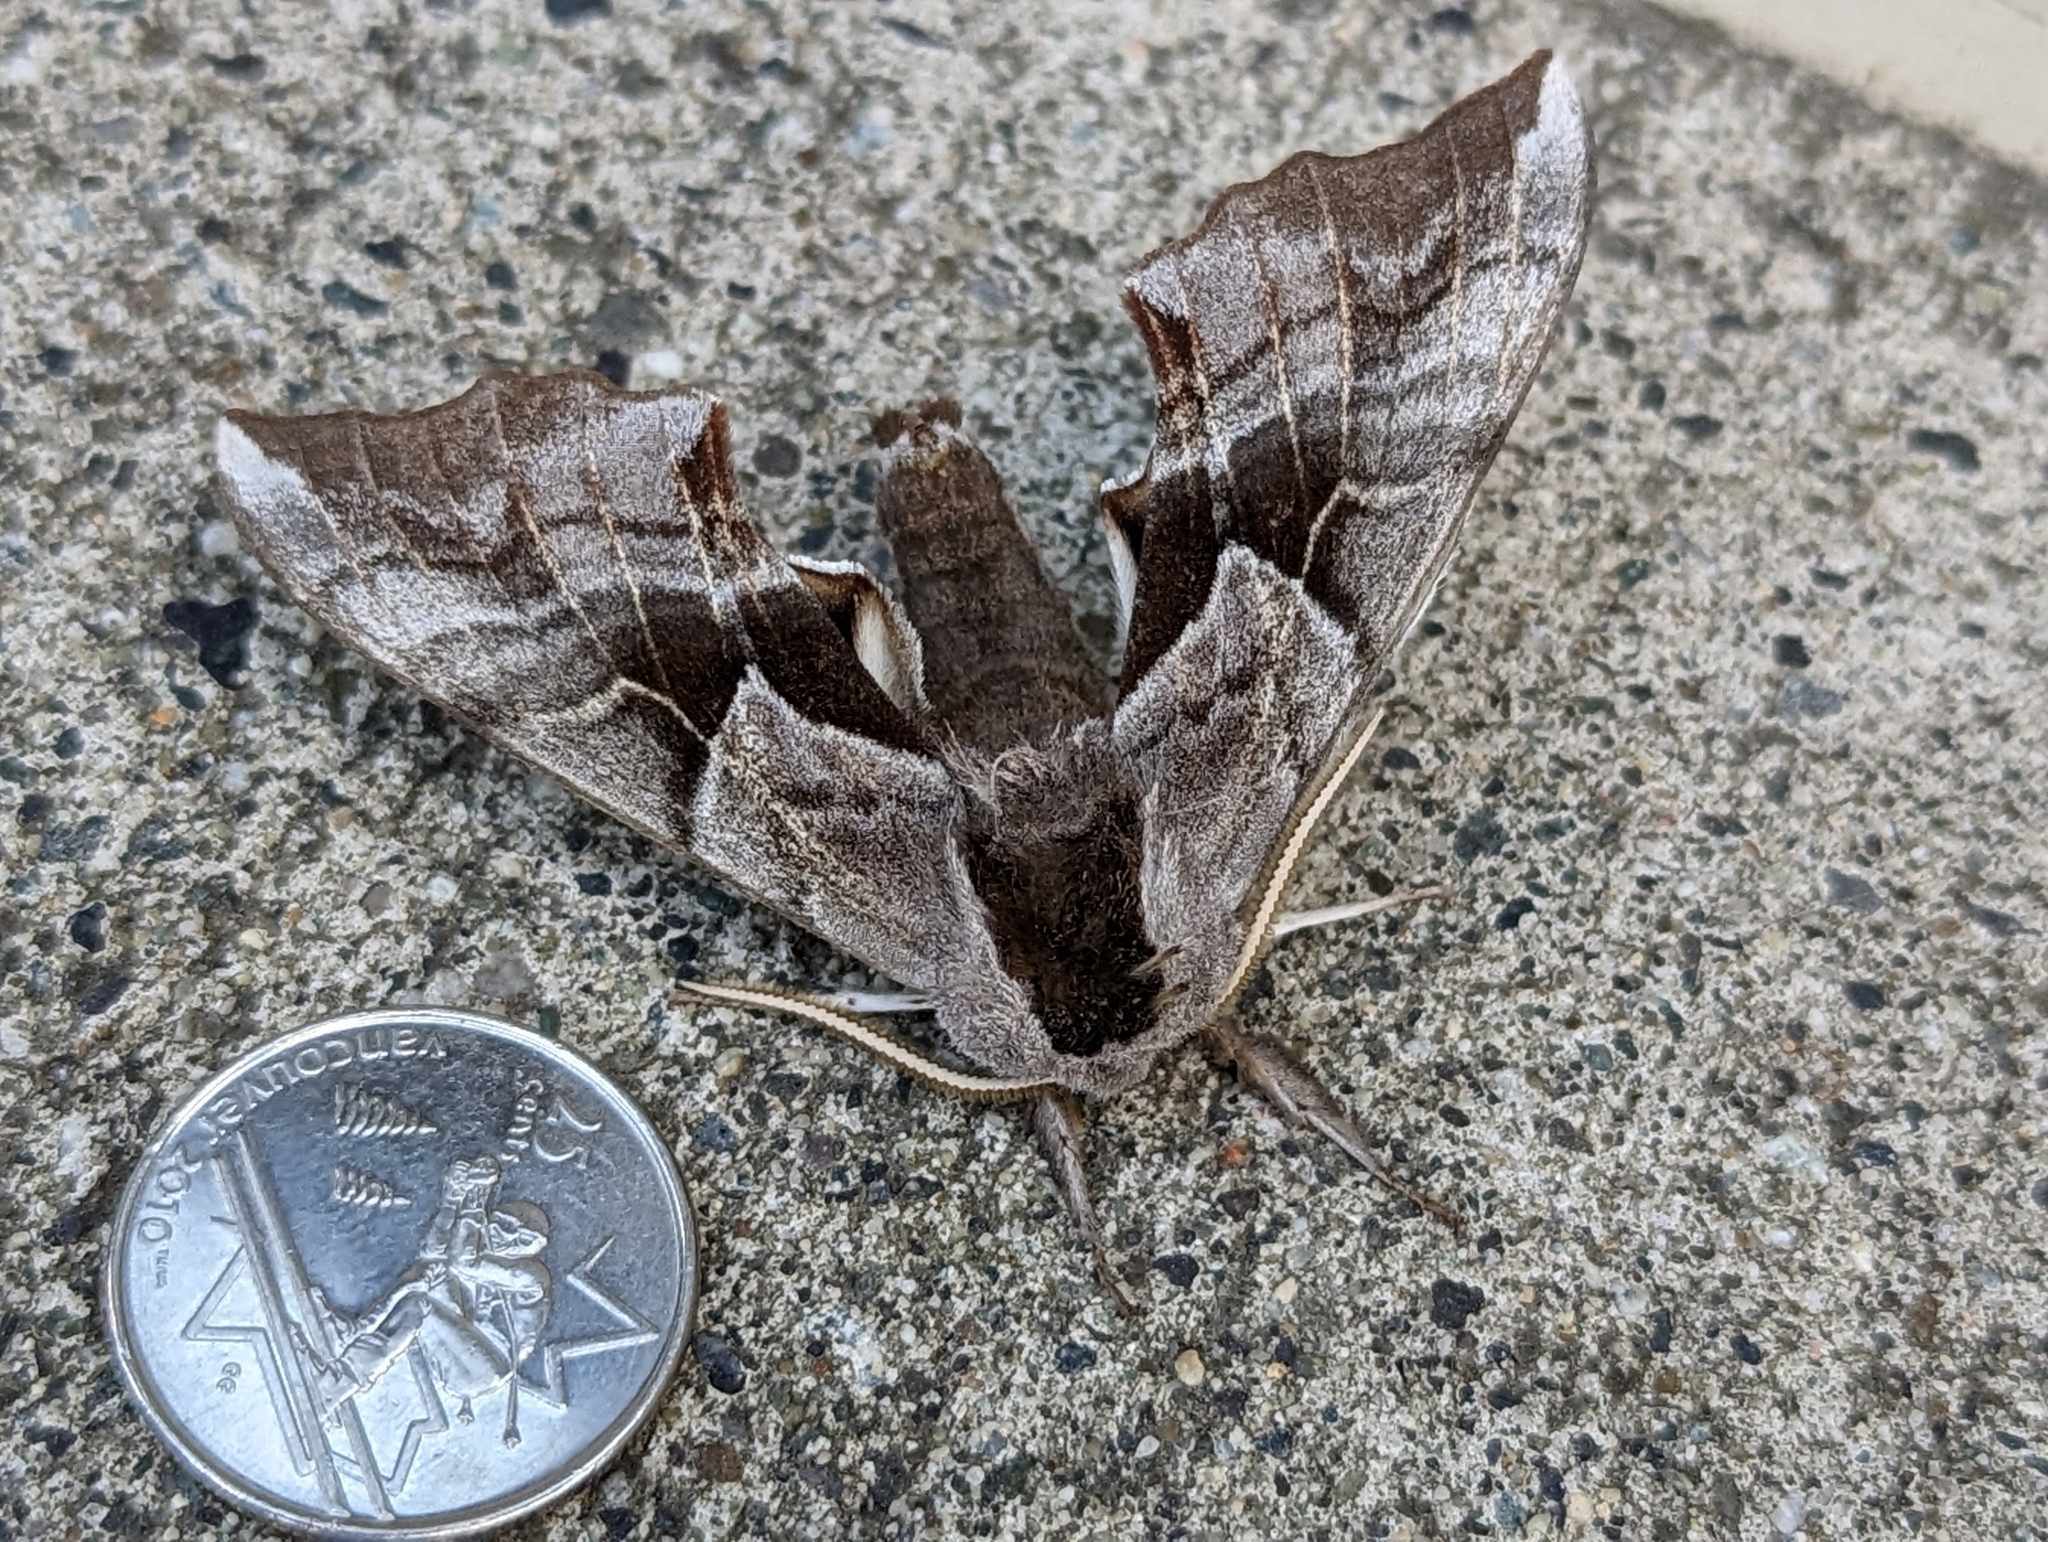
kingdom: Animalia
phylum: Arthropoda
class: Insecta
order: Lepidoptera
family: Sphingidae
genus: Smerinthus
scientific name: Smerinthus cerisyi
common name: Cerisy's sphinx moth
